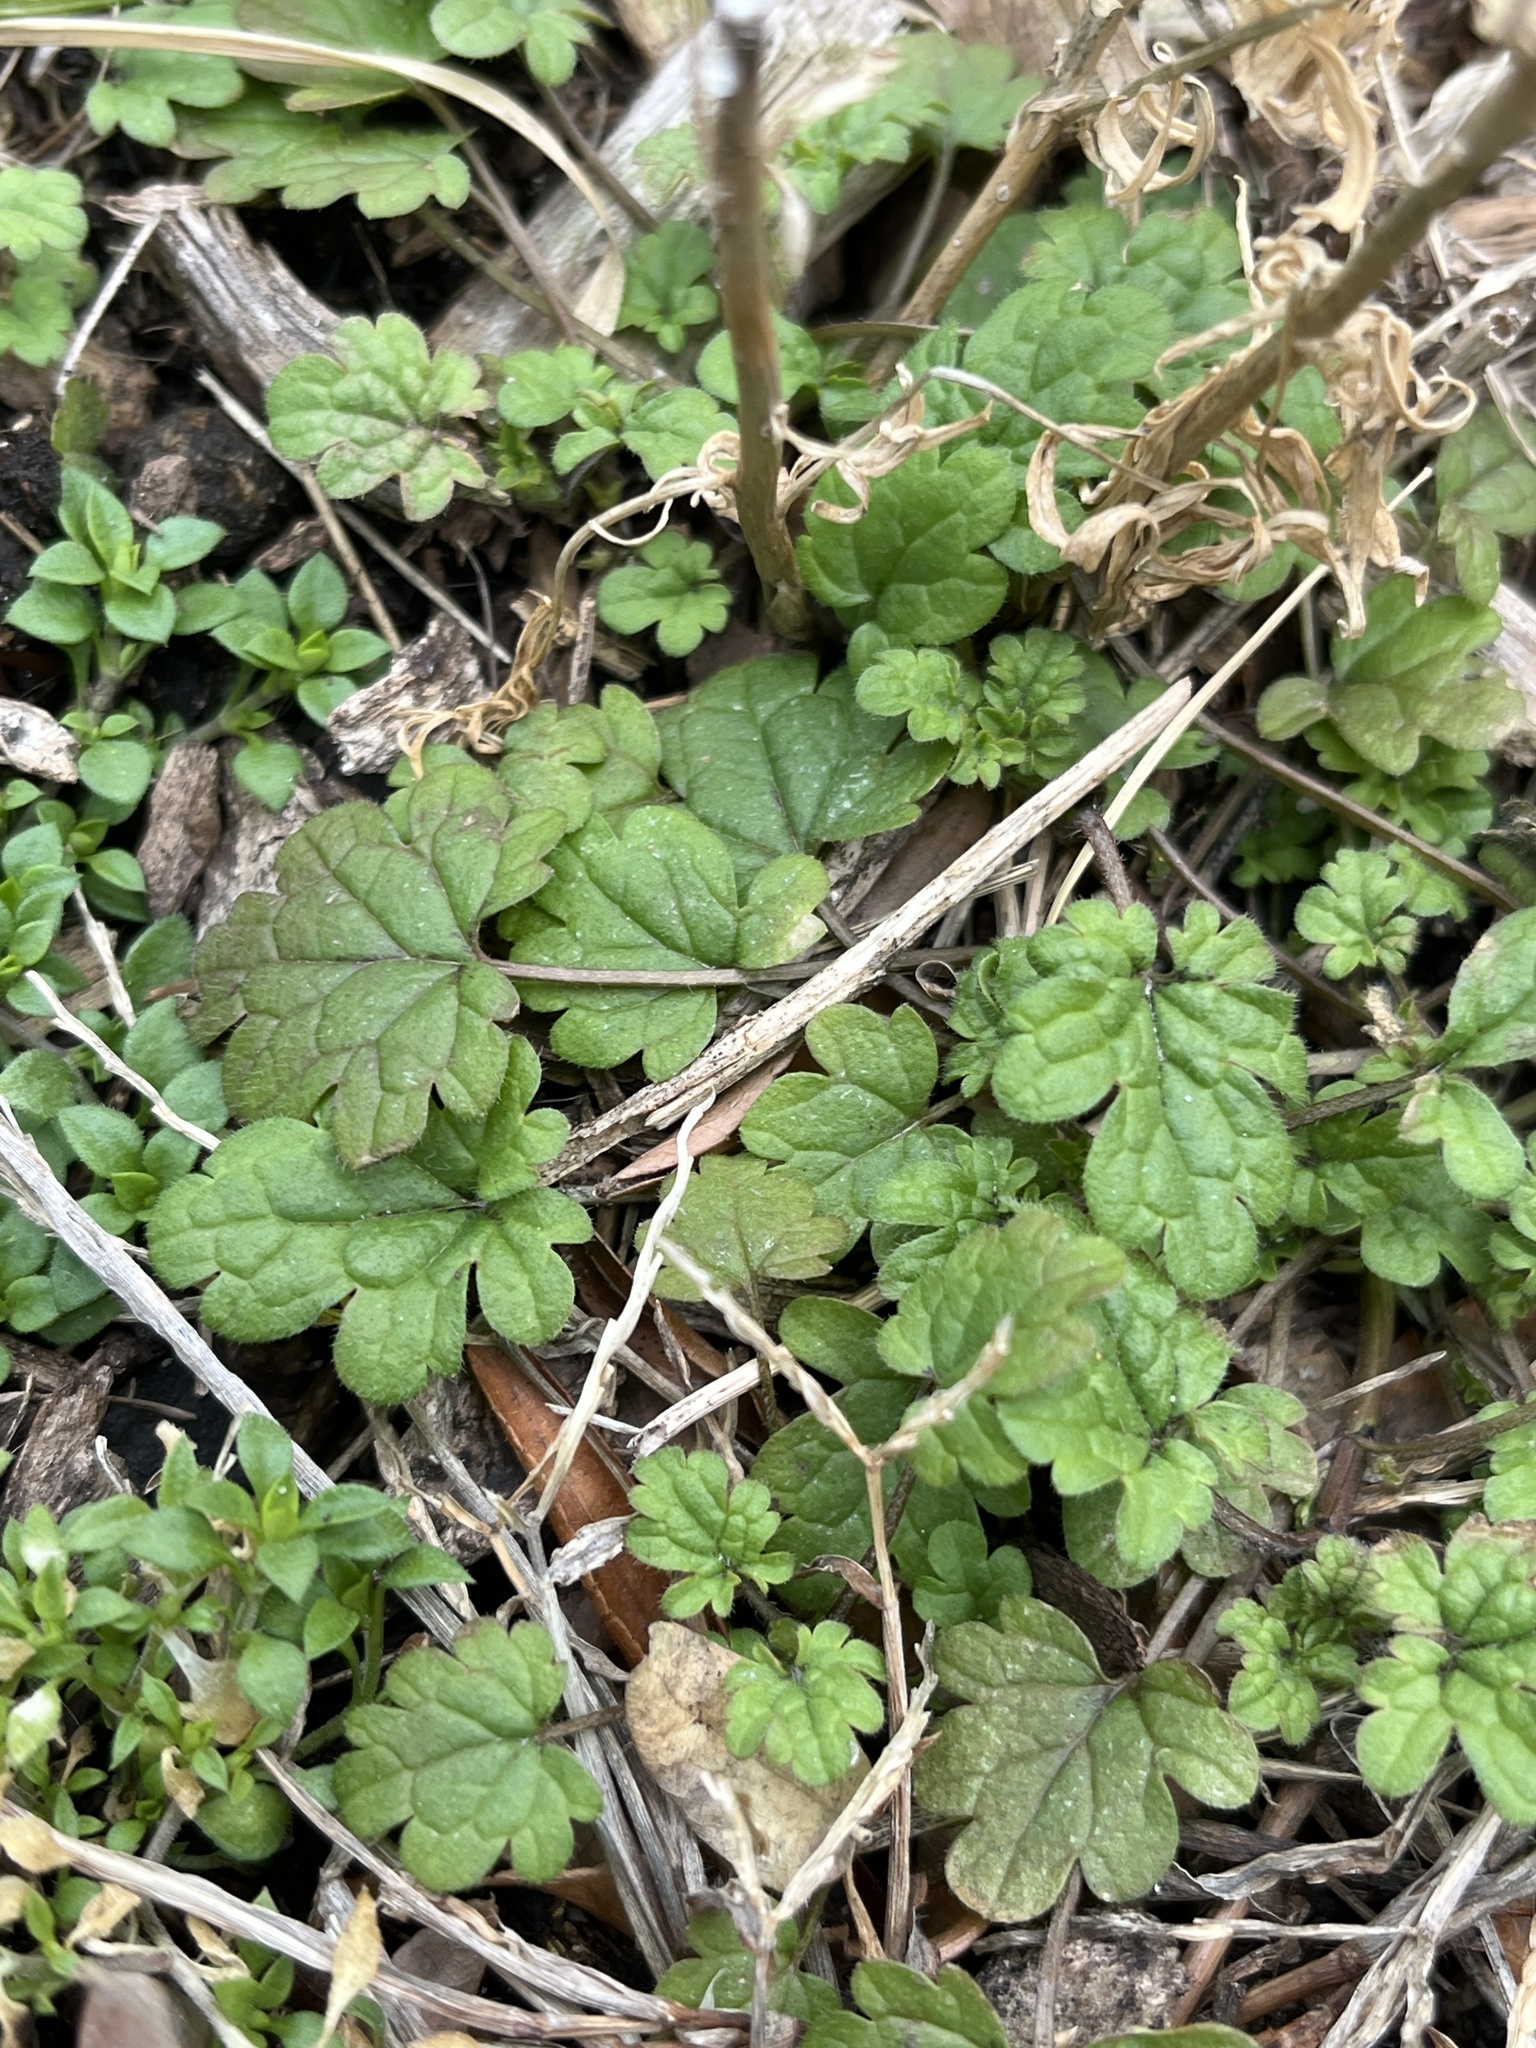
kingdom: Plantae
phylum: Tracheophyta
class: Magnoliopsida
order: Lamiales
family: Lamiaceae
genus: Lamium
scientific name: Lamium amplexicaule
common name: Henbit dead-nettle
